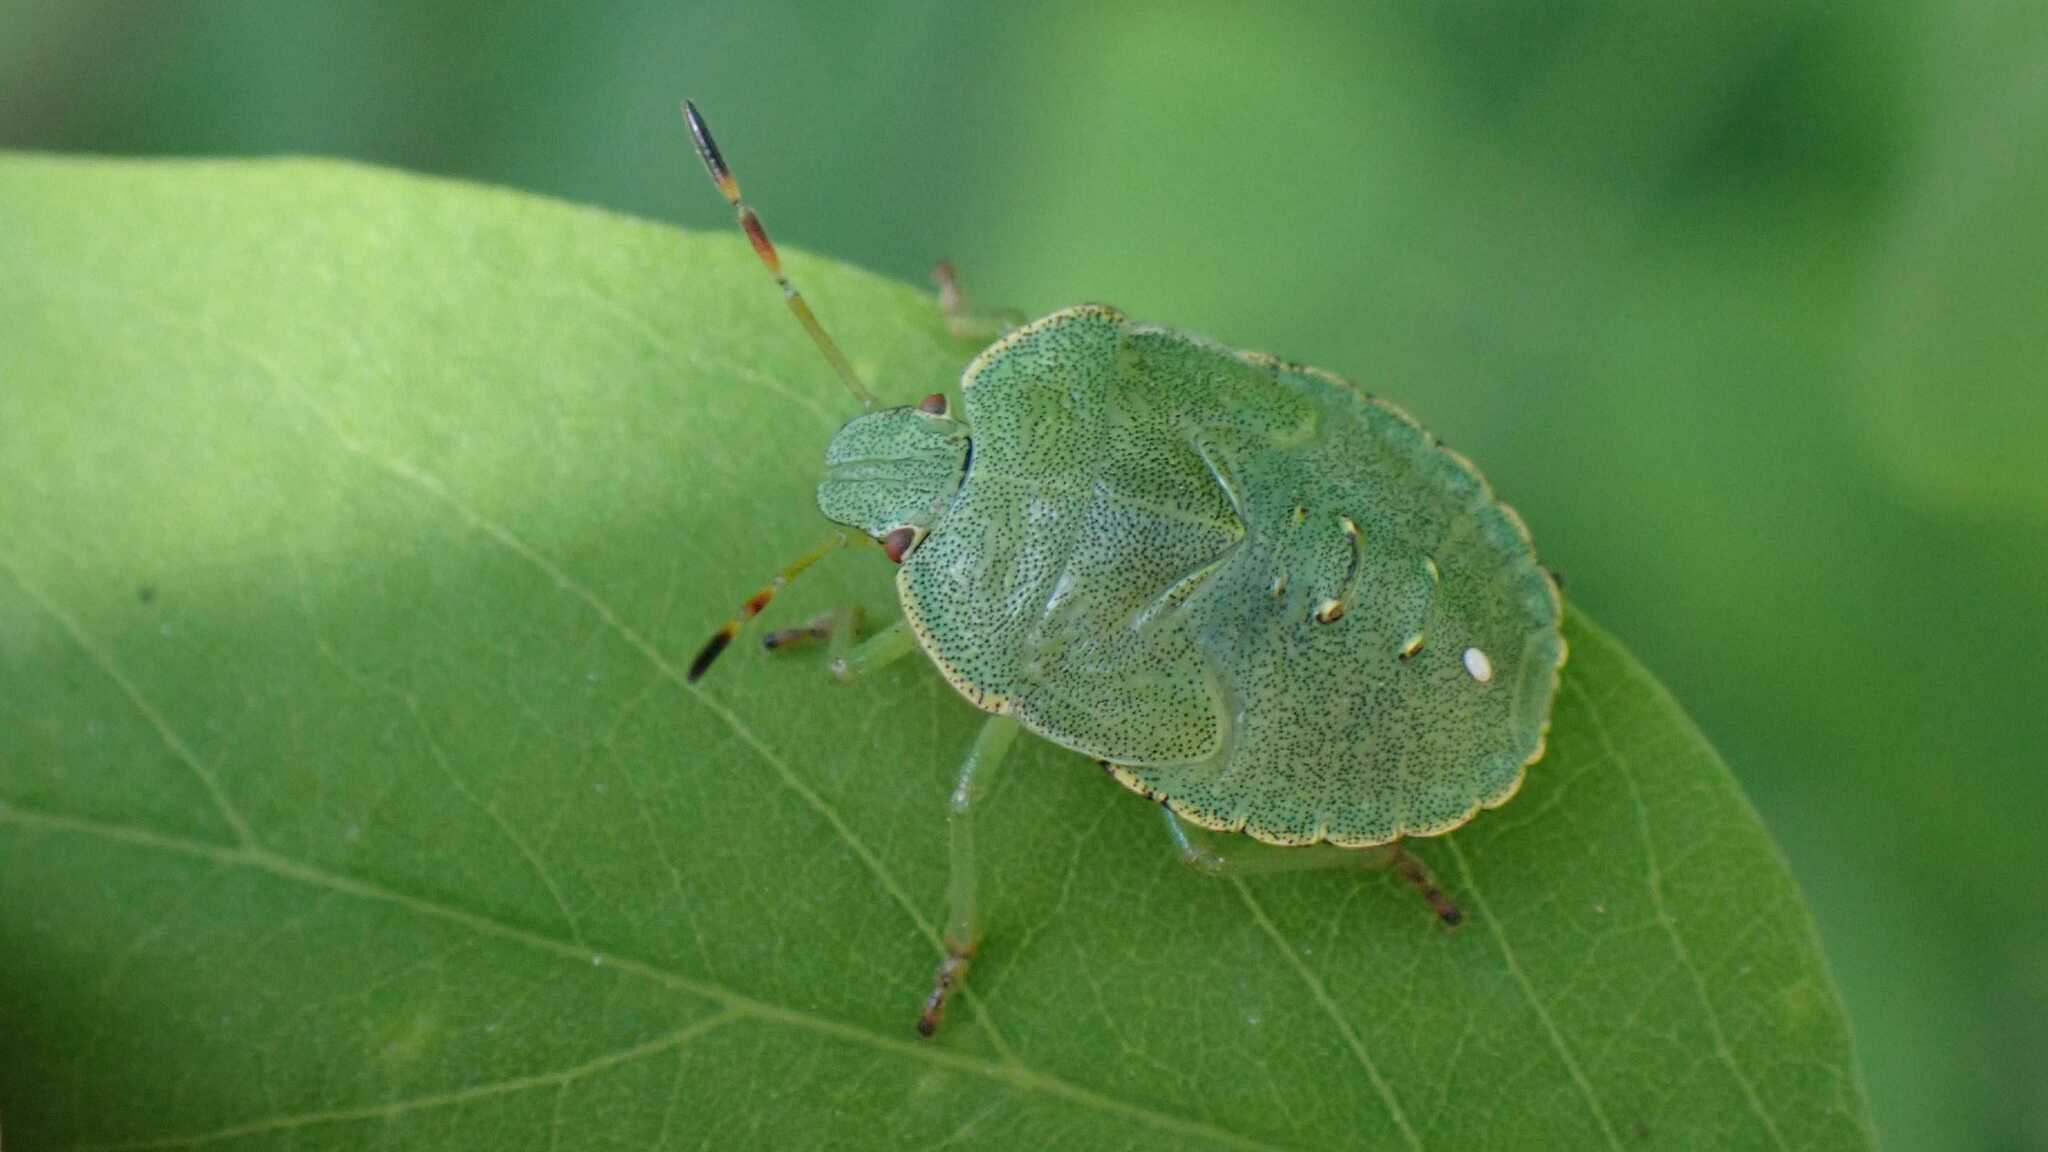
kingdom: Animalia
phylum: Arthropoda
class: Insecta
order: Hemiptera
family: Pentatomidae
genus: Palomena
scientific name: Palomena prasina
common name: Green shieldbug
